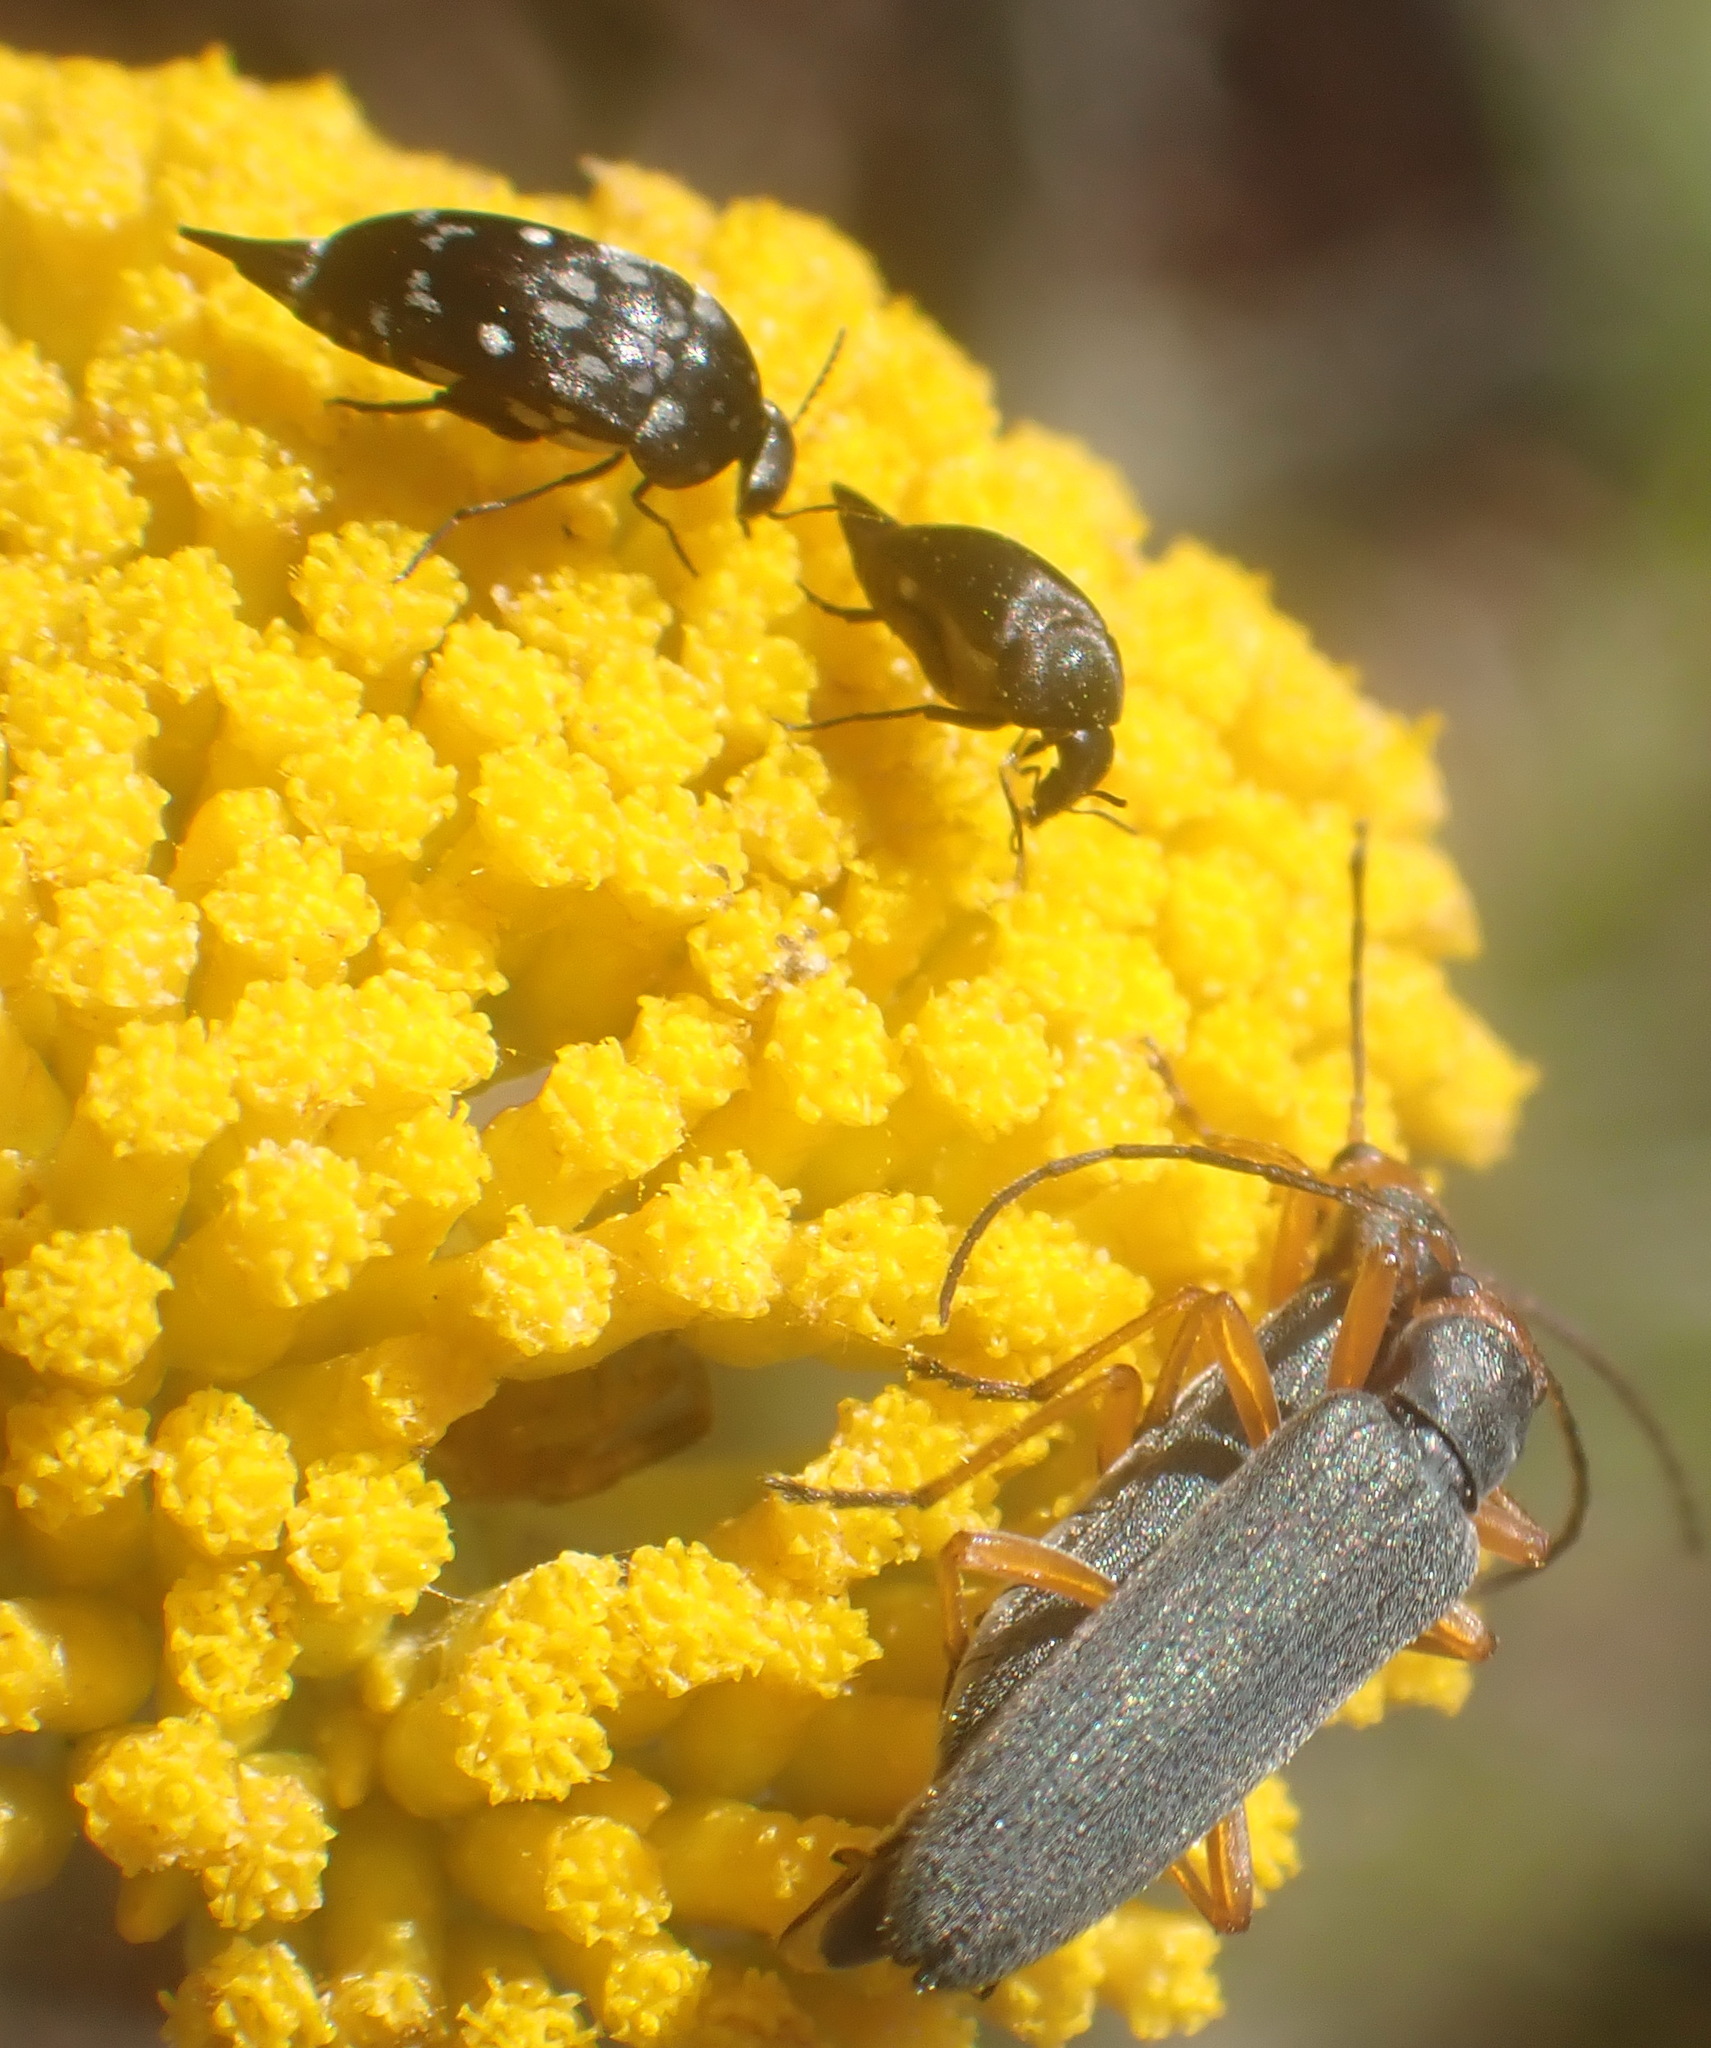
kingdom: Animalia
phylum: Arthropoda
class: Insecta
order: Coleoptera
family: Oedemeridae
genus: Melananthia
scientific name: Melananthia
